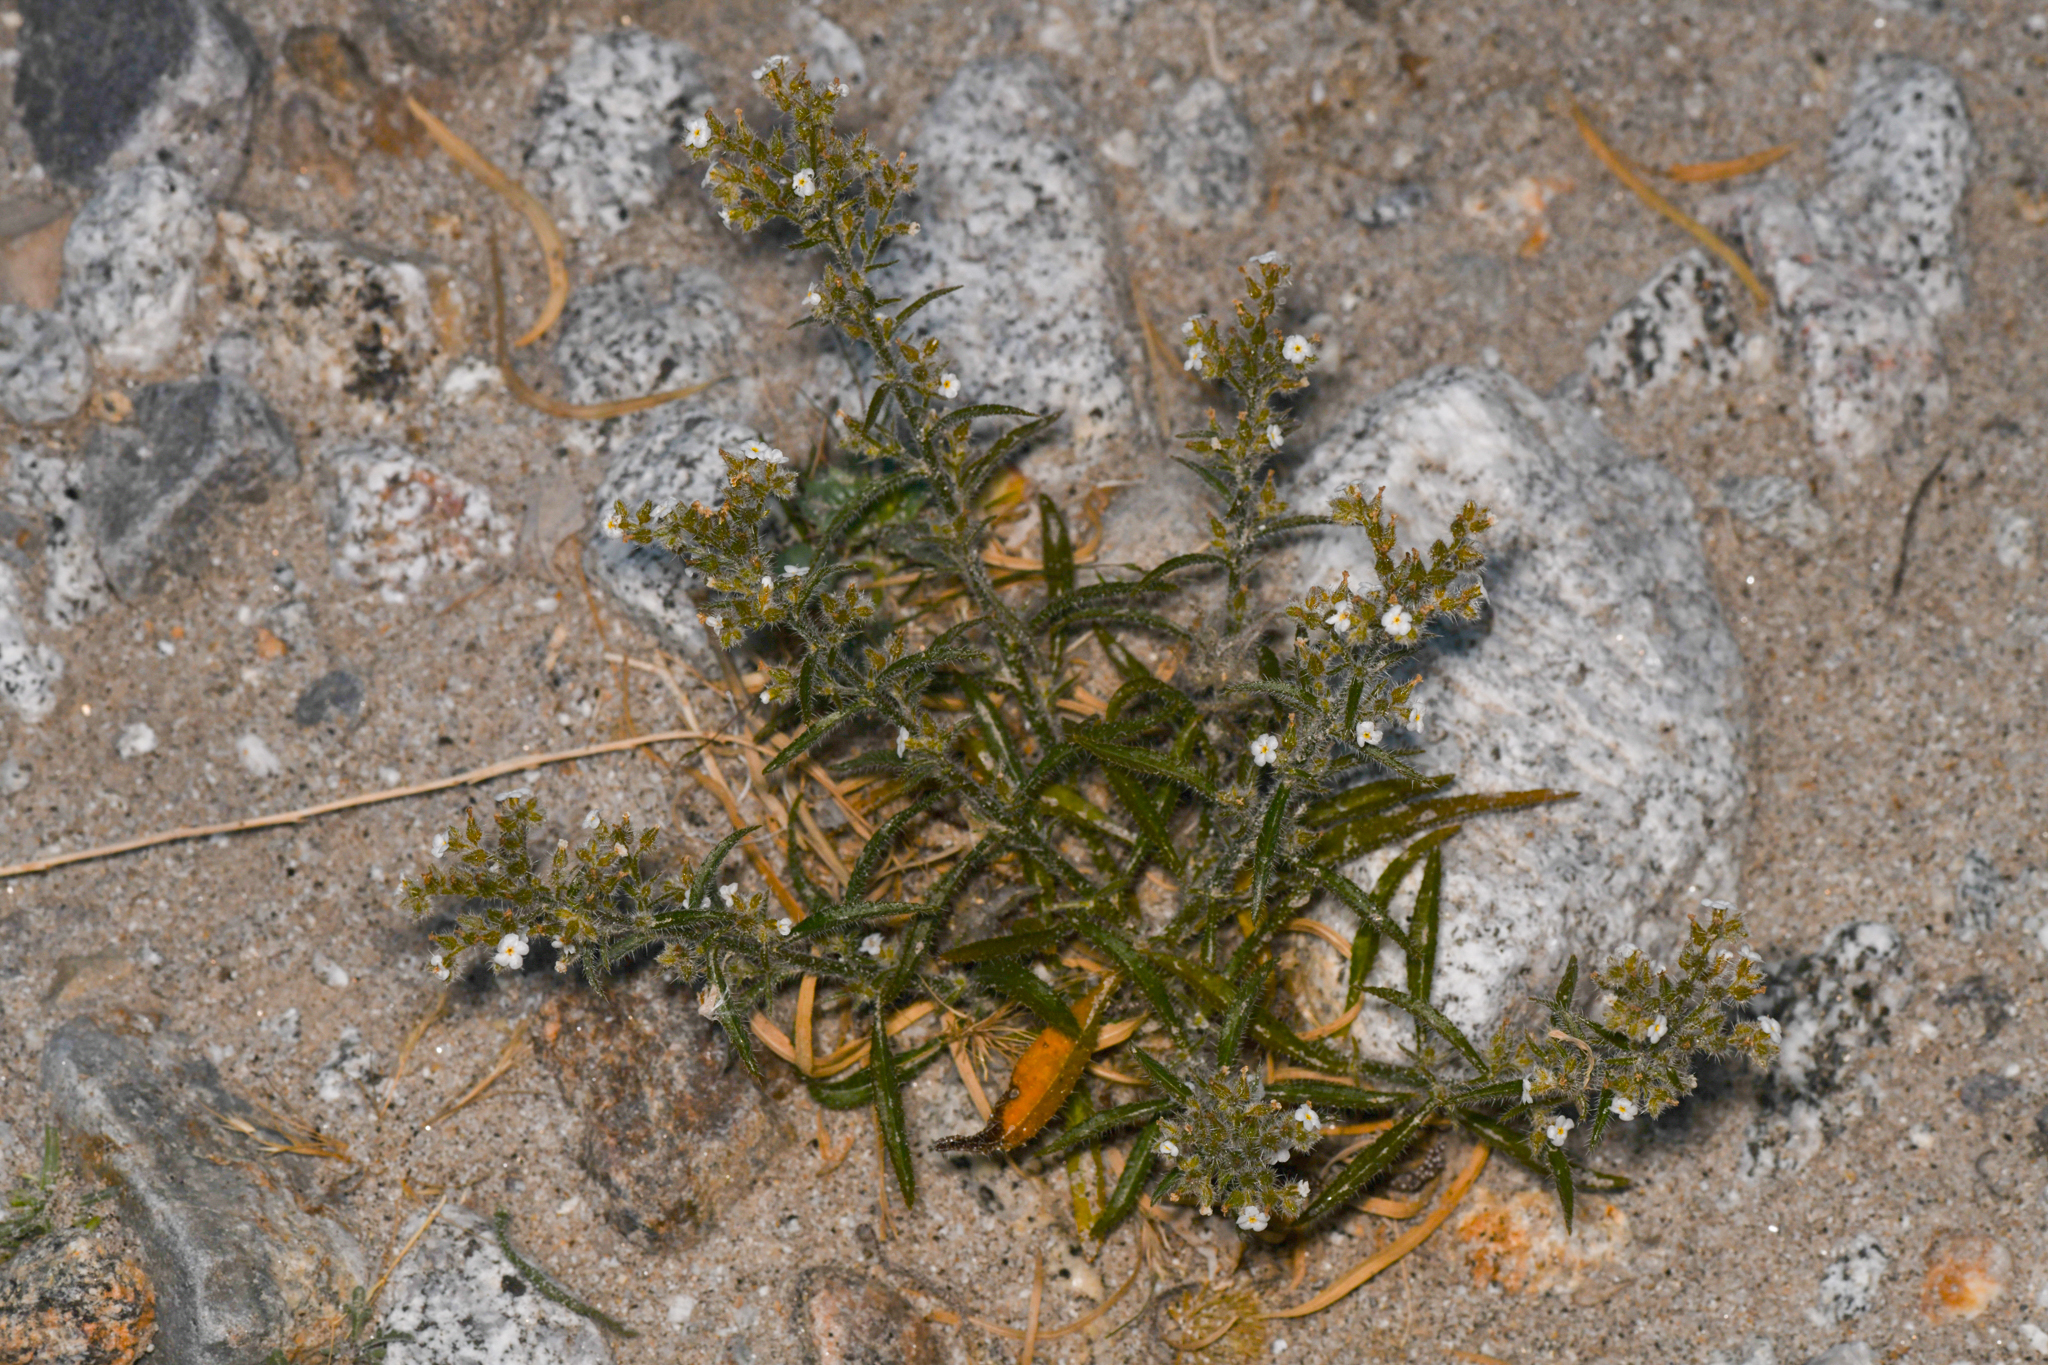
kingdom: Plantae
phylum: Tracheophyta
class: Magnoliopsida
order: Boraginales
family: Boraginaceae
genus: Johnstonella
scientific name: Johnstonella holoptera
